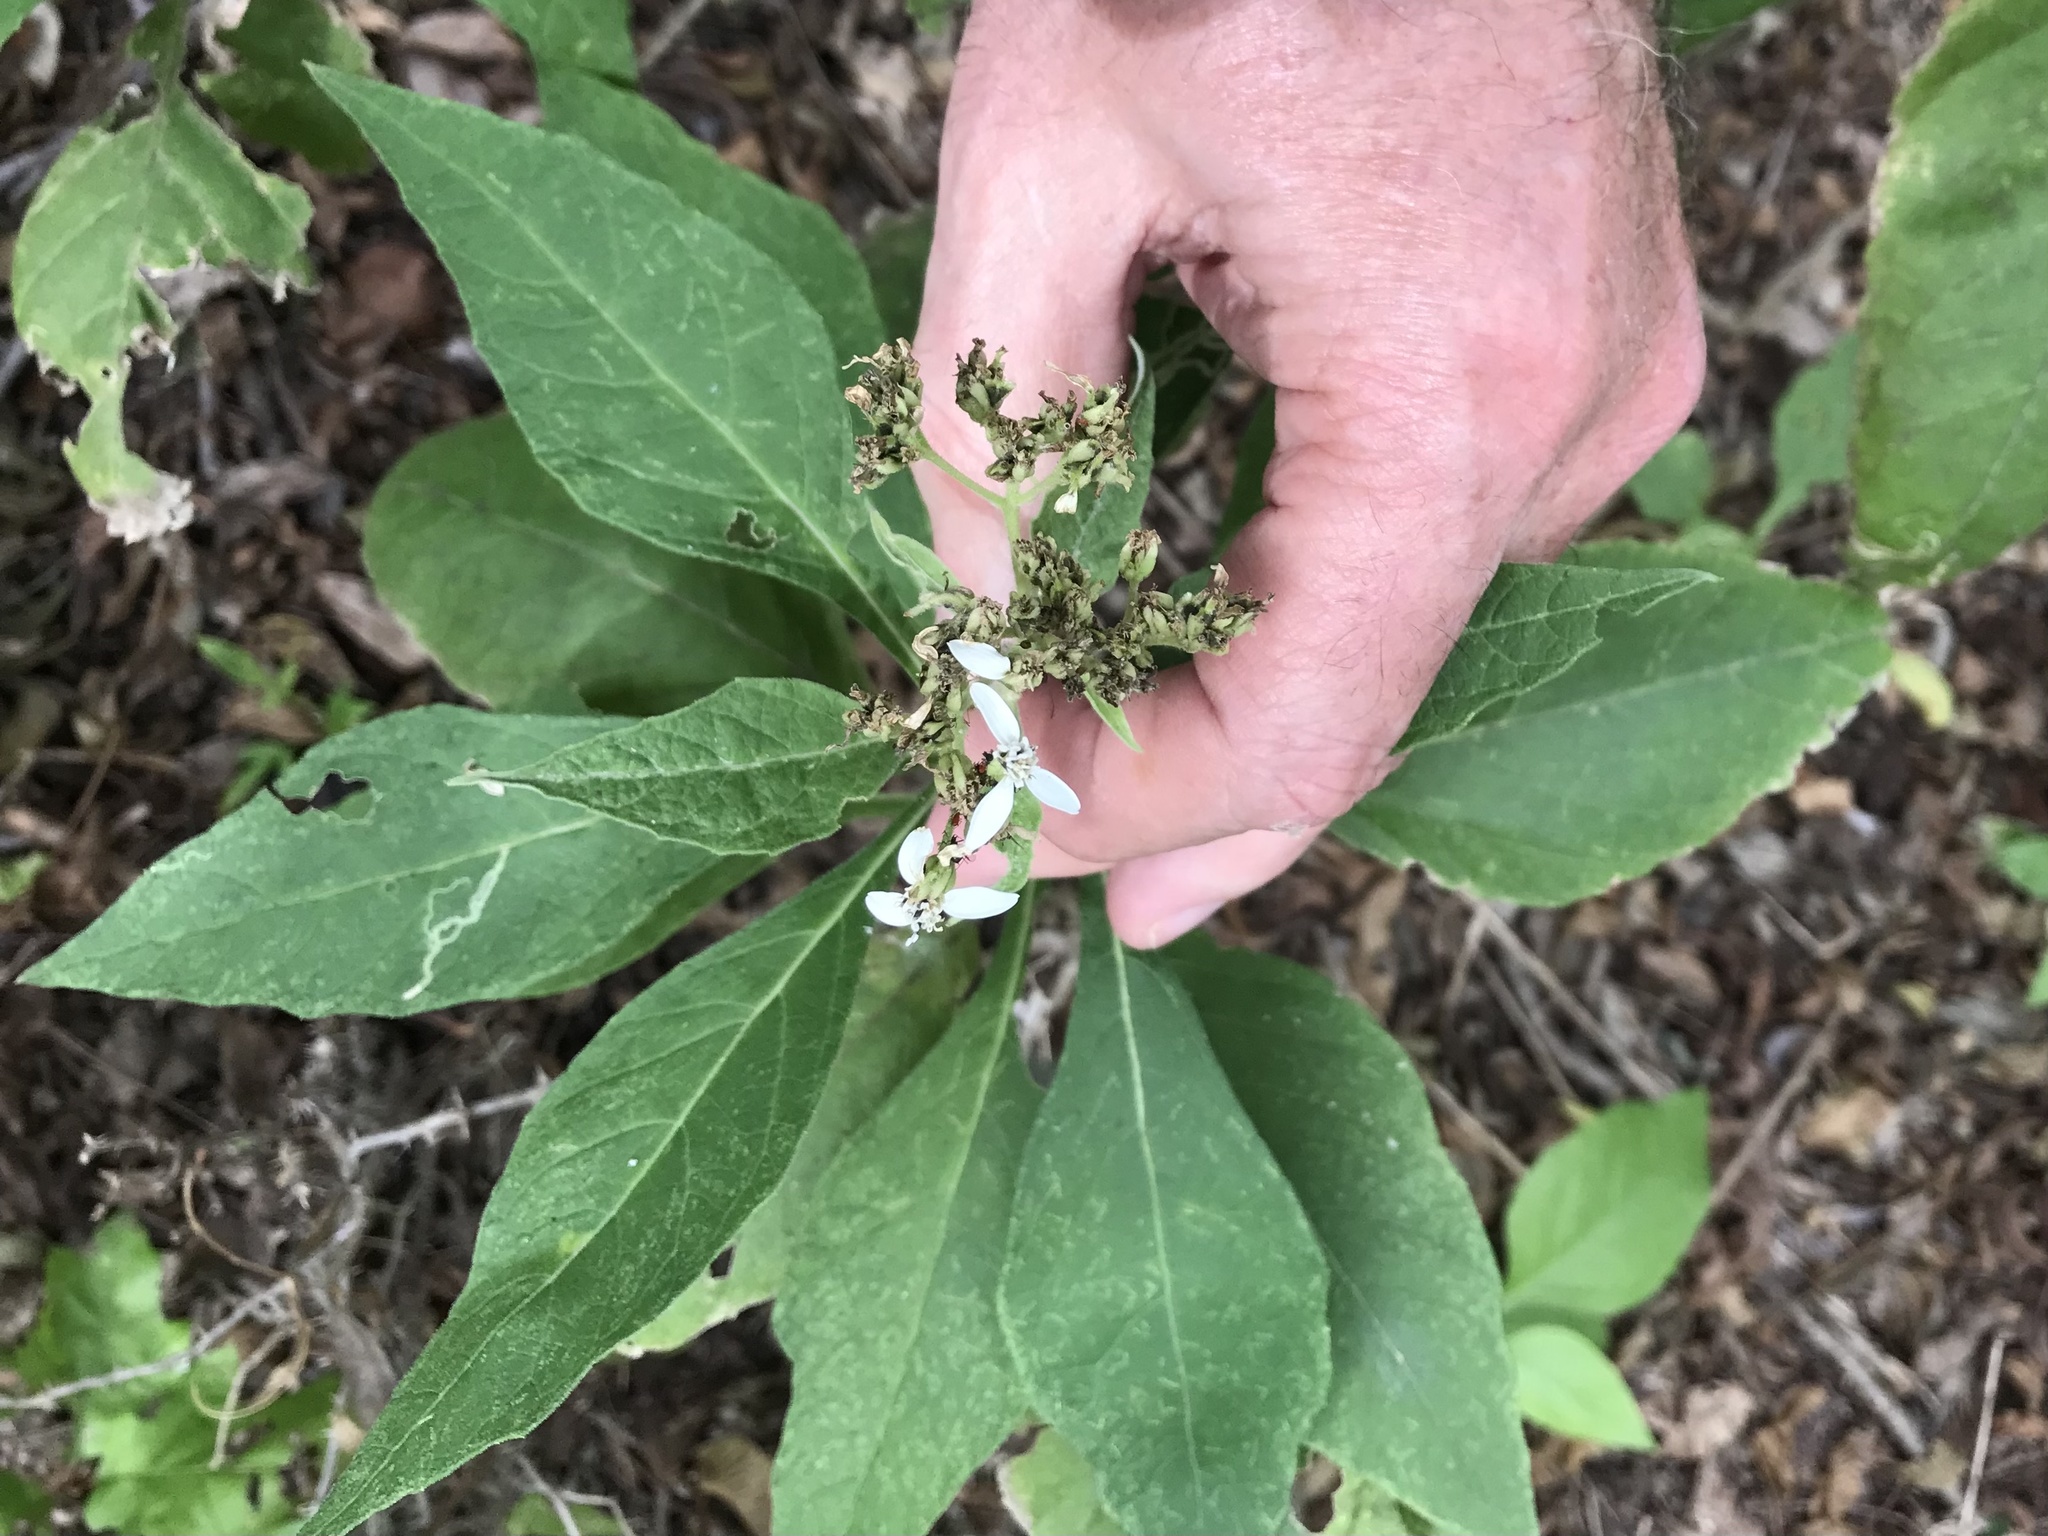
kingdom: Plantae
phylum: Tracheophyta
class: Magnoliopsida
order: Asterales
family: Asteraceae
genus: Verbesina
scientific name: Verbesina virginica
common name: Frostweed
